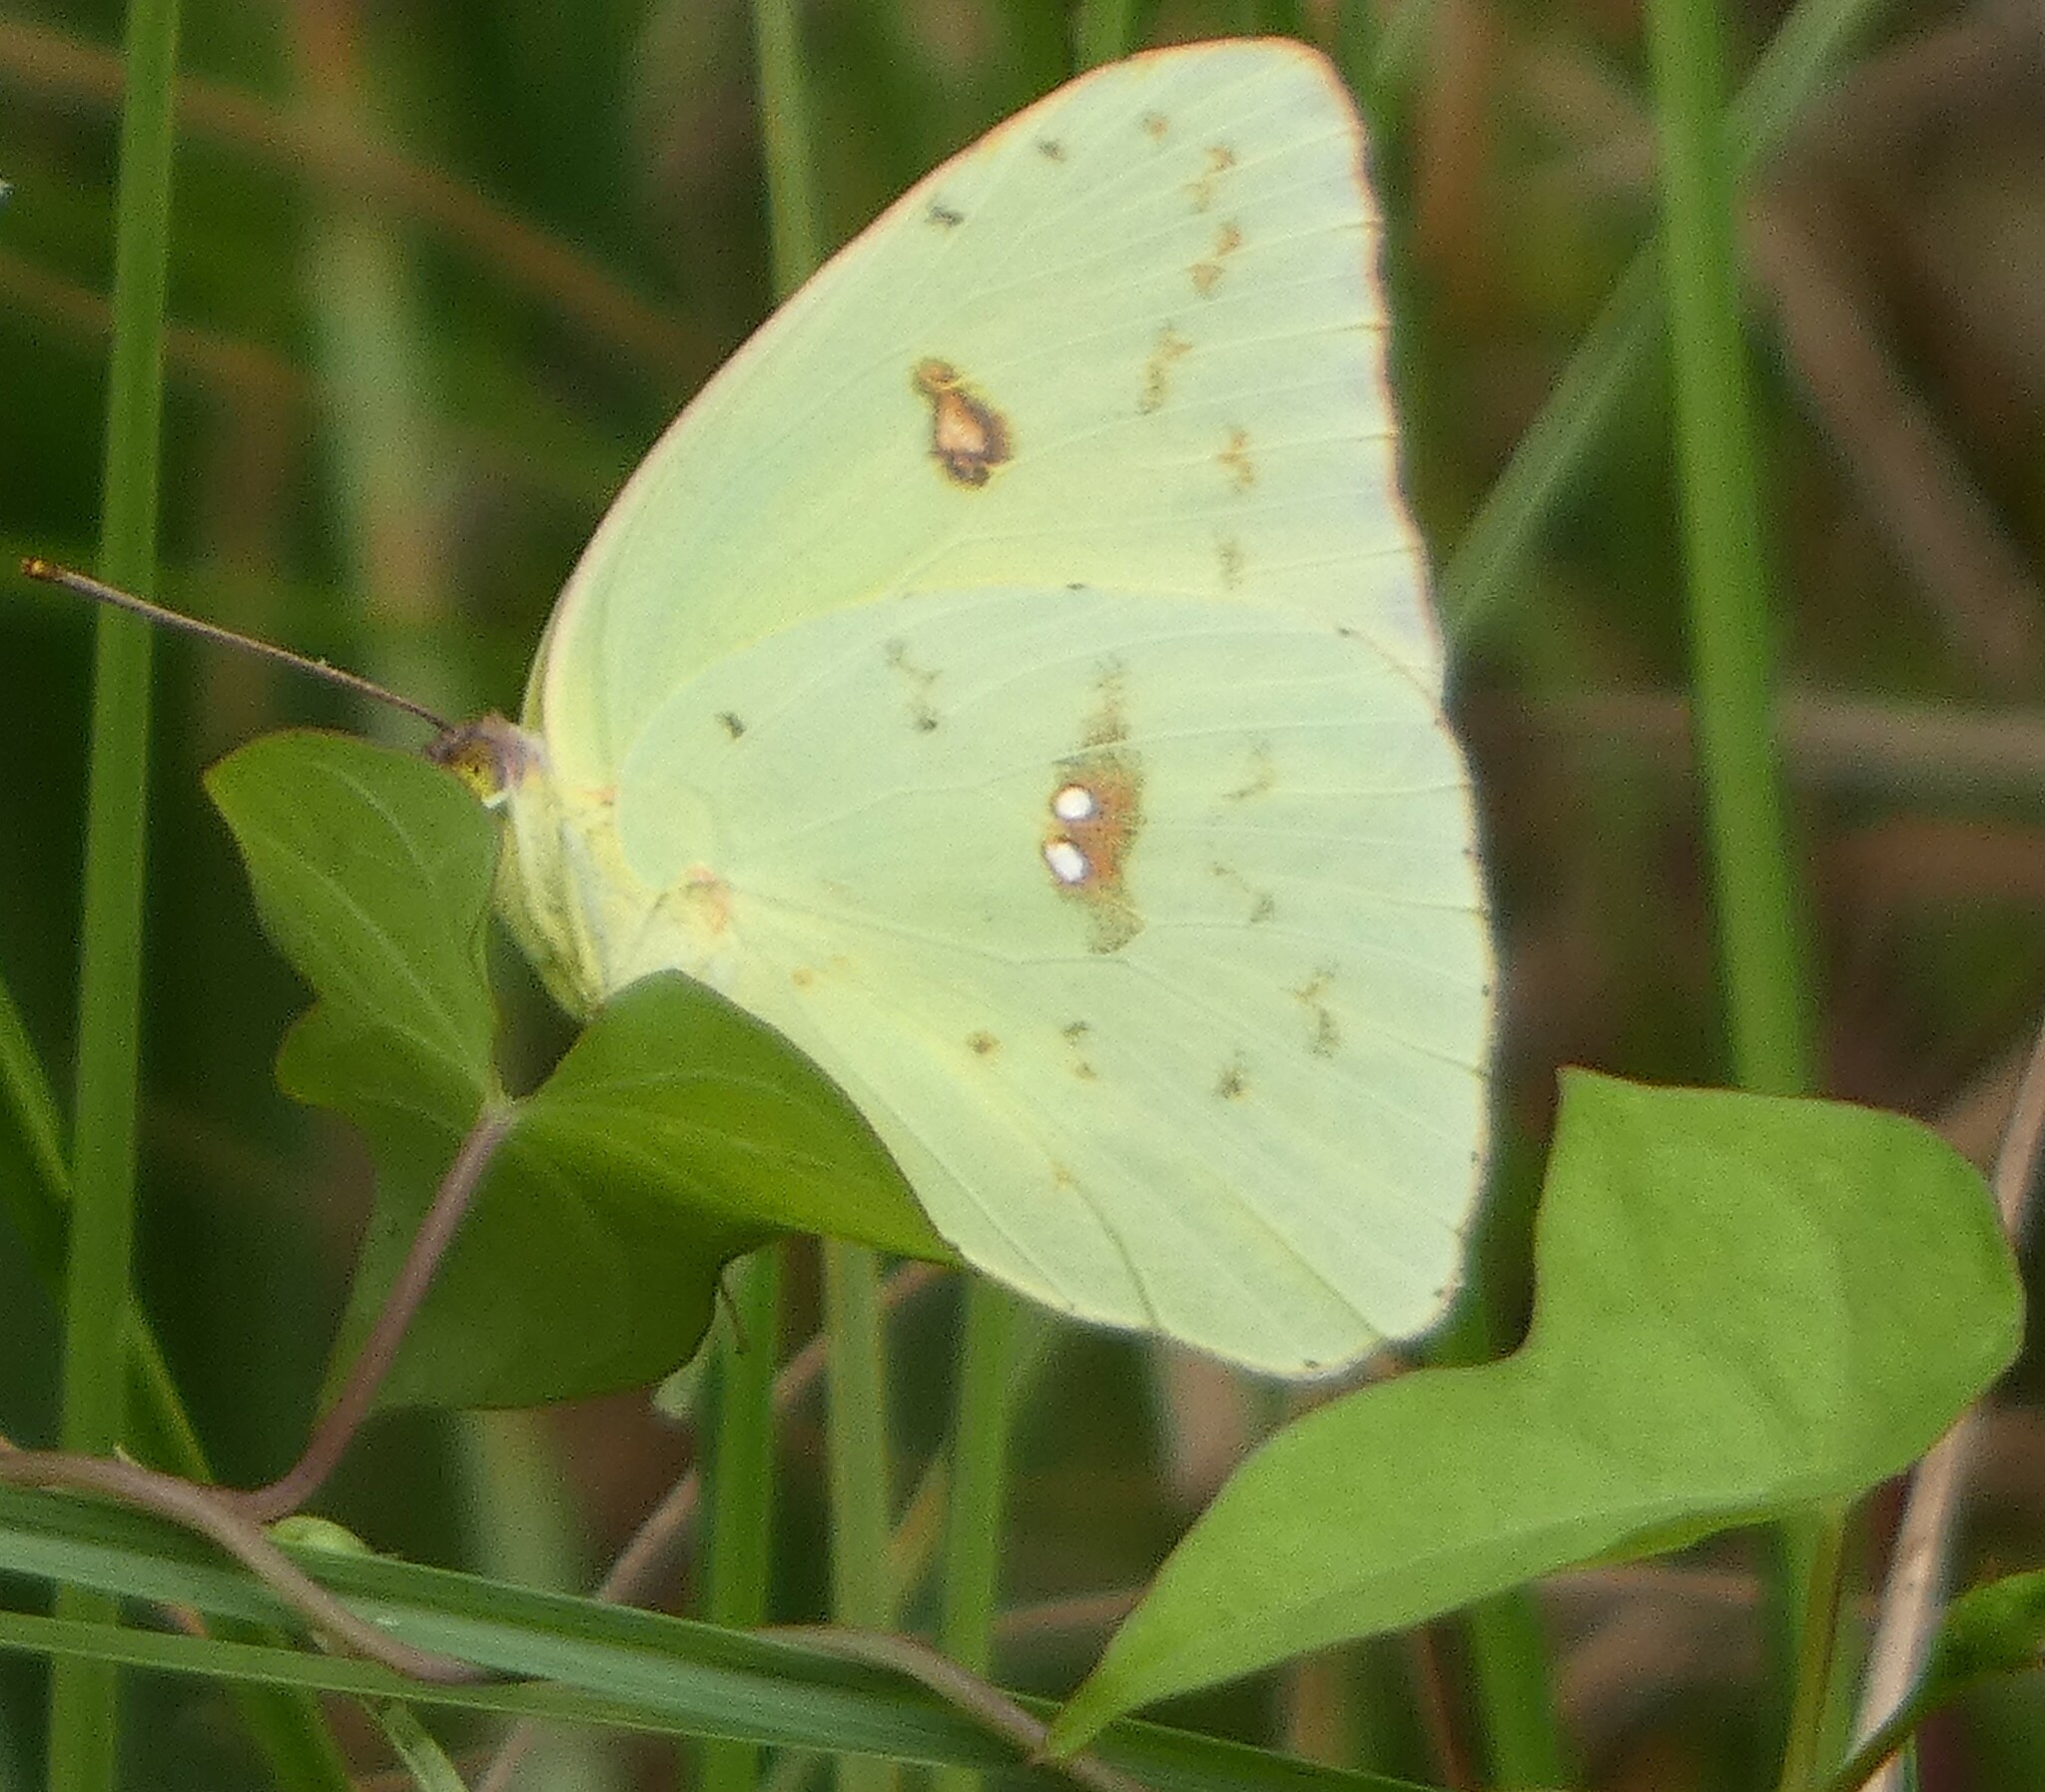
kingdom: Animalia
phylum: Arthropoda
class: Insecta
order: Lepidoptera
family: Pieridae
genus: Phoebis
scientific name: Phoebis sennae
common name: Cloudless sulphur
